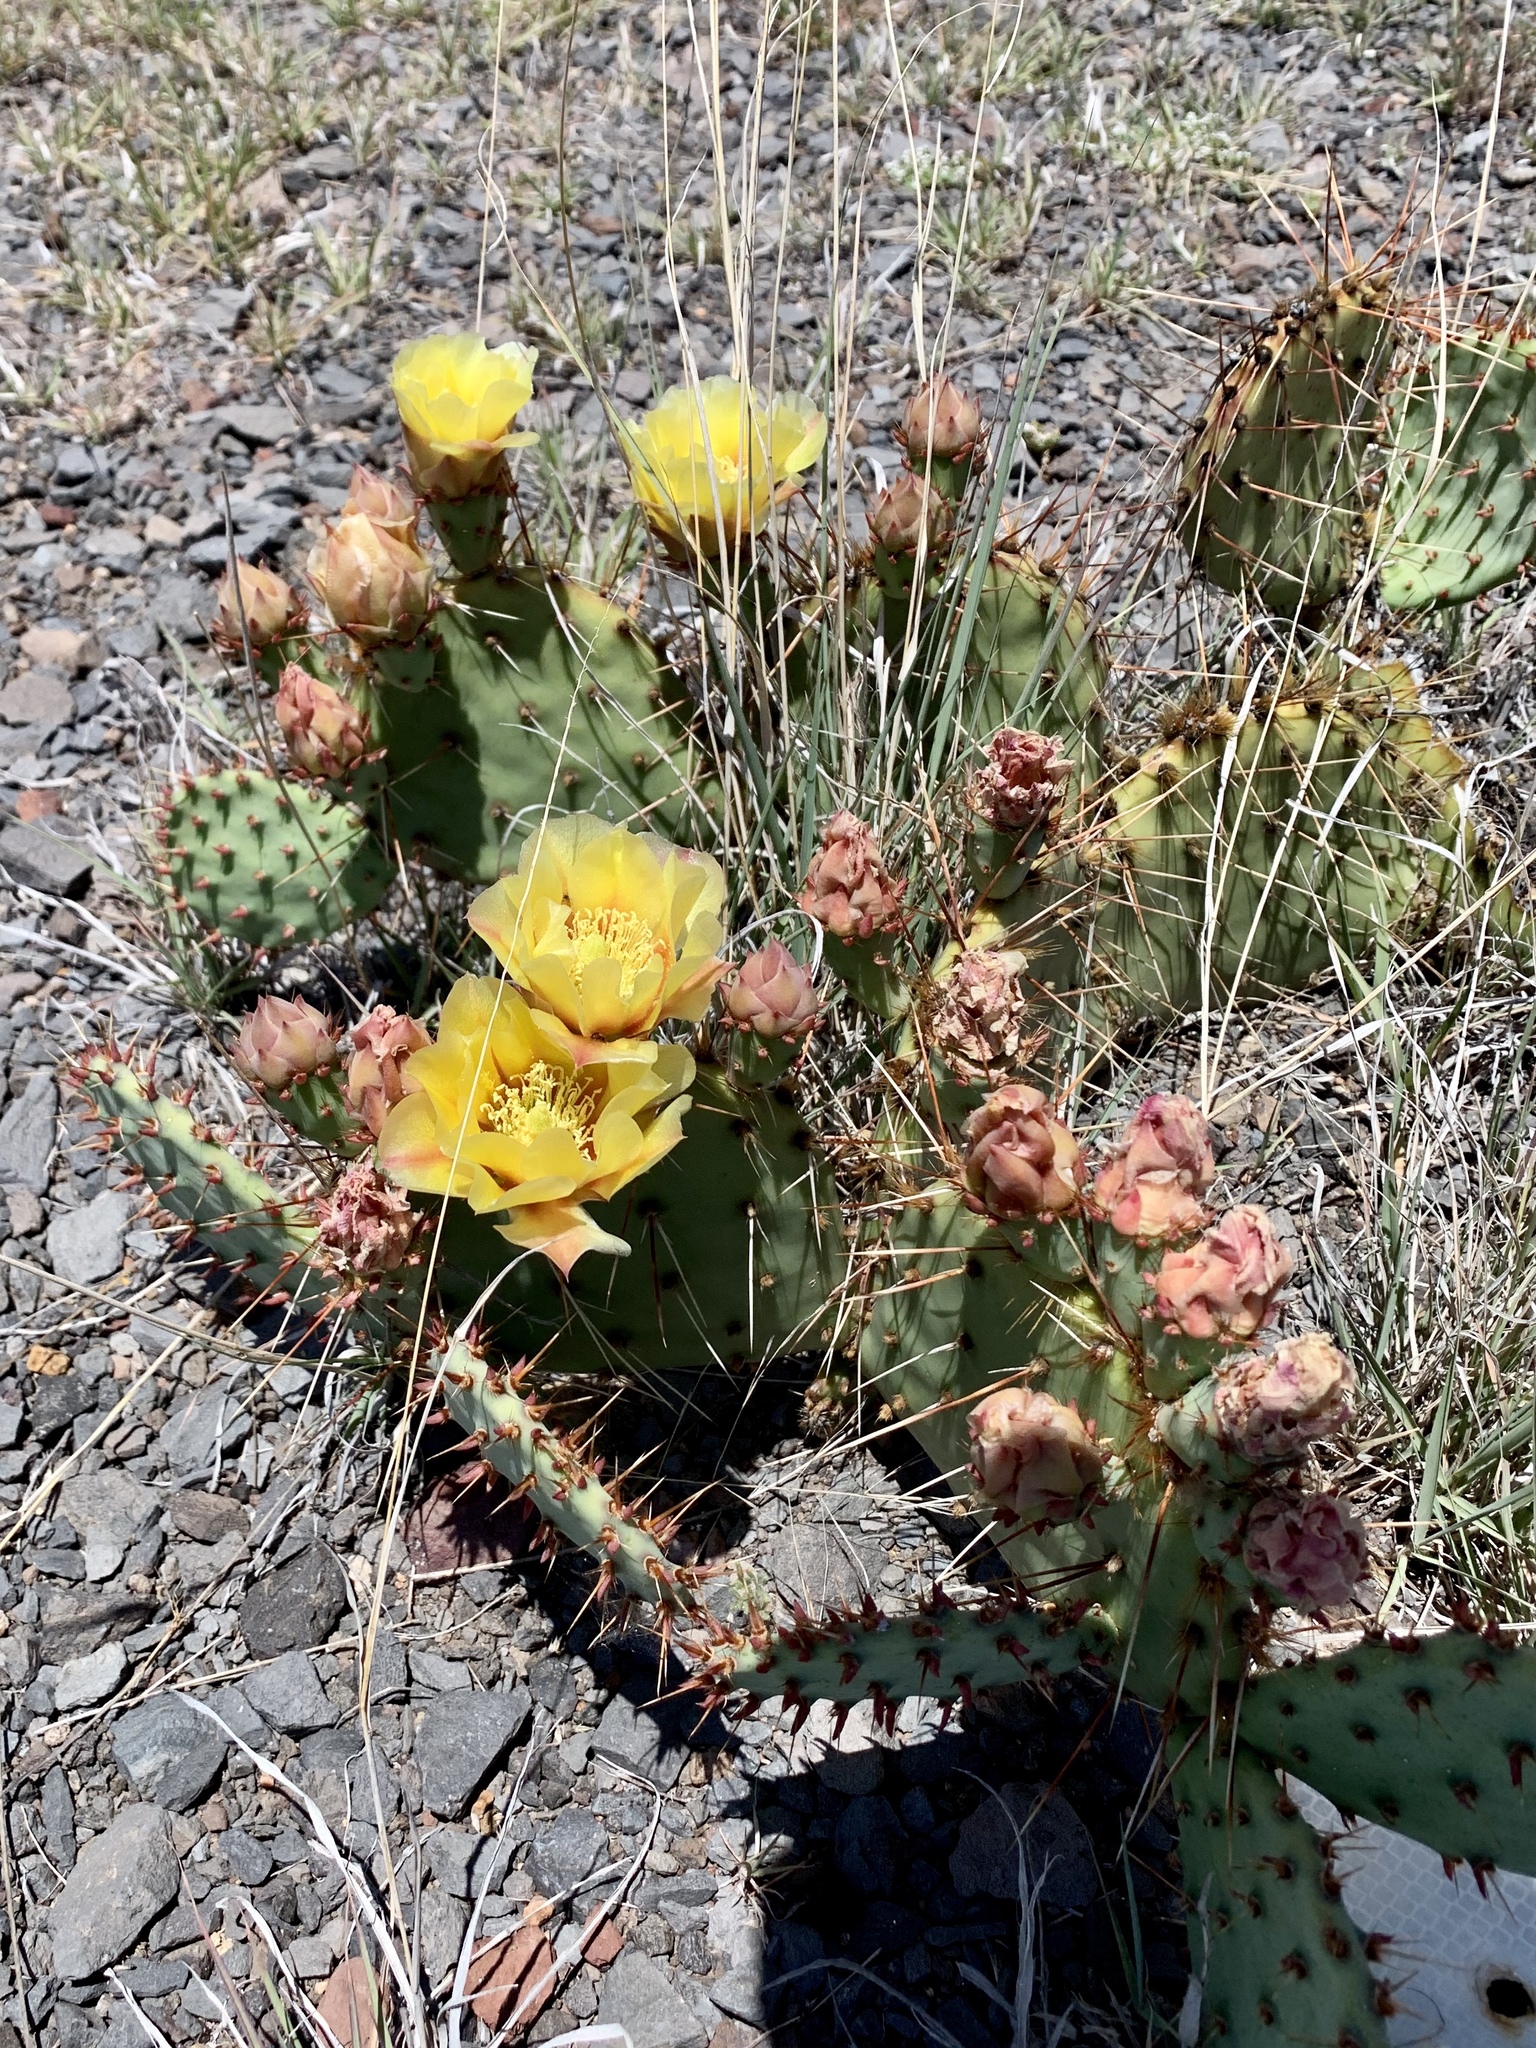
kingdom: Plantae
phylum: Tracheophyta
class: Magnoliopsida
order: Caryophyllales
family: Cactaceae
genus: Opuntia
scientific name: Opuntia phaeacantha
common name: New mexico prickly-pear
